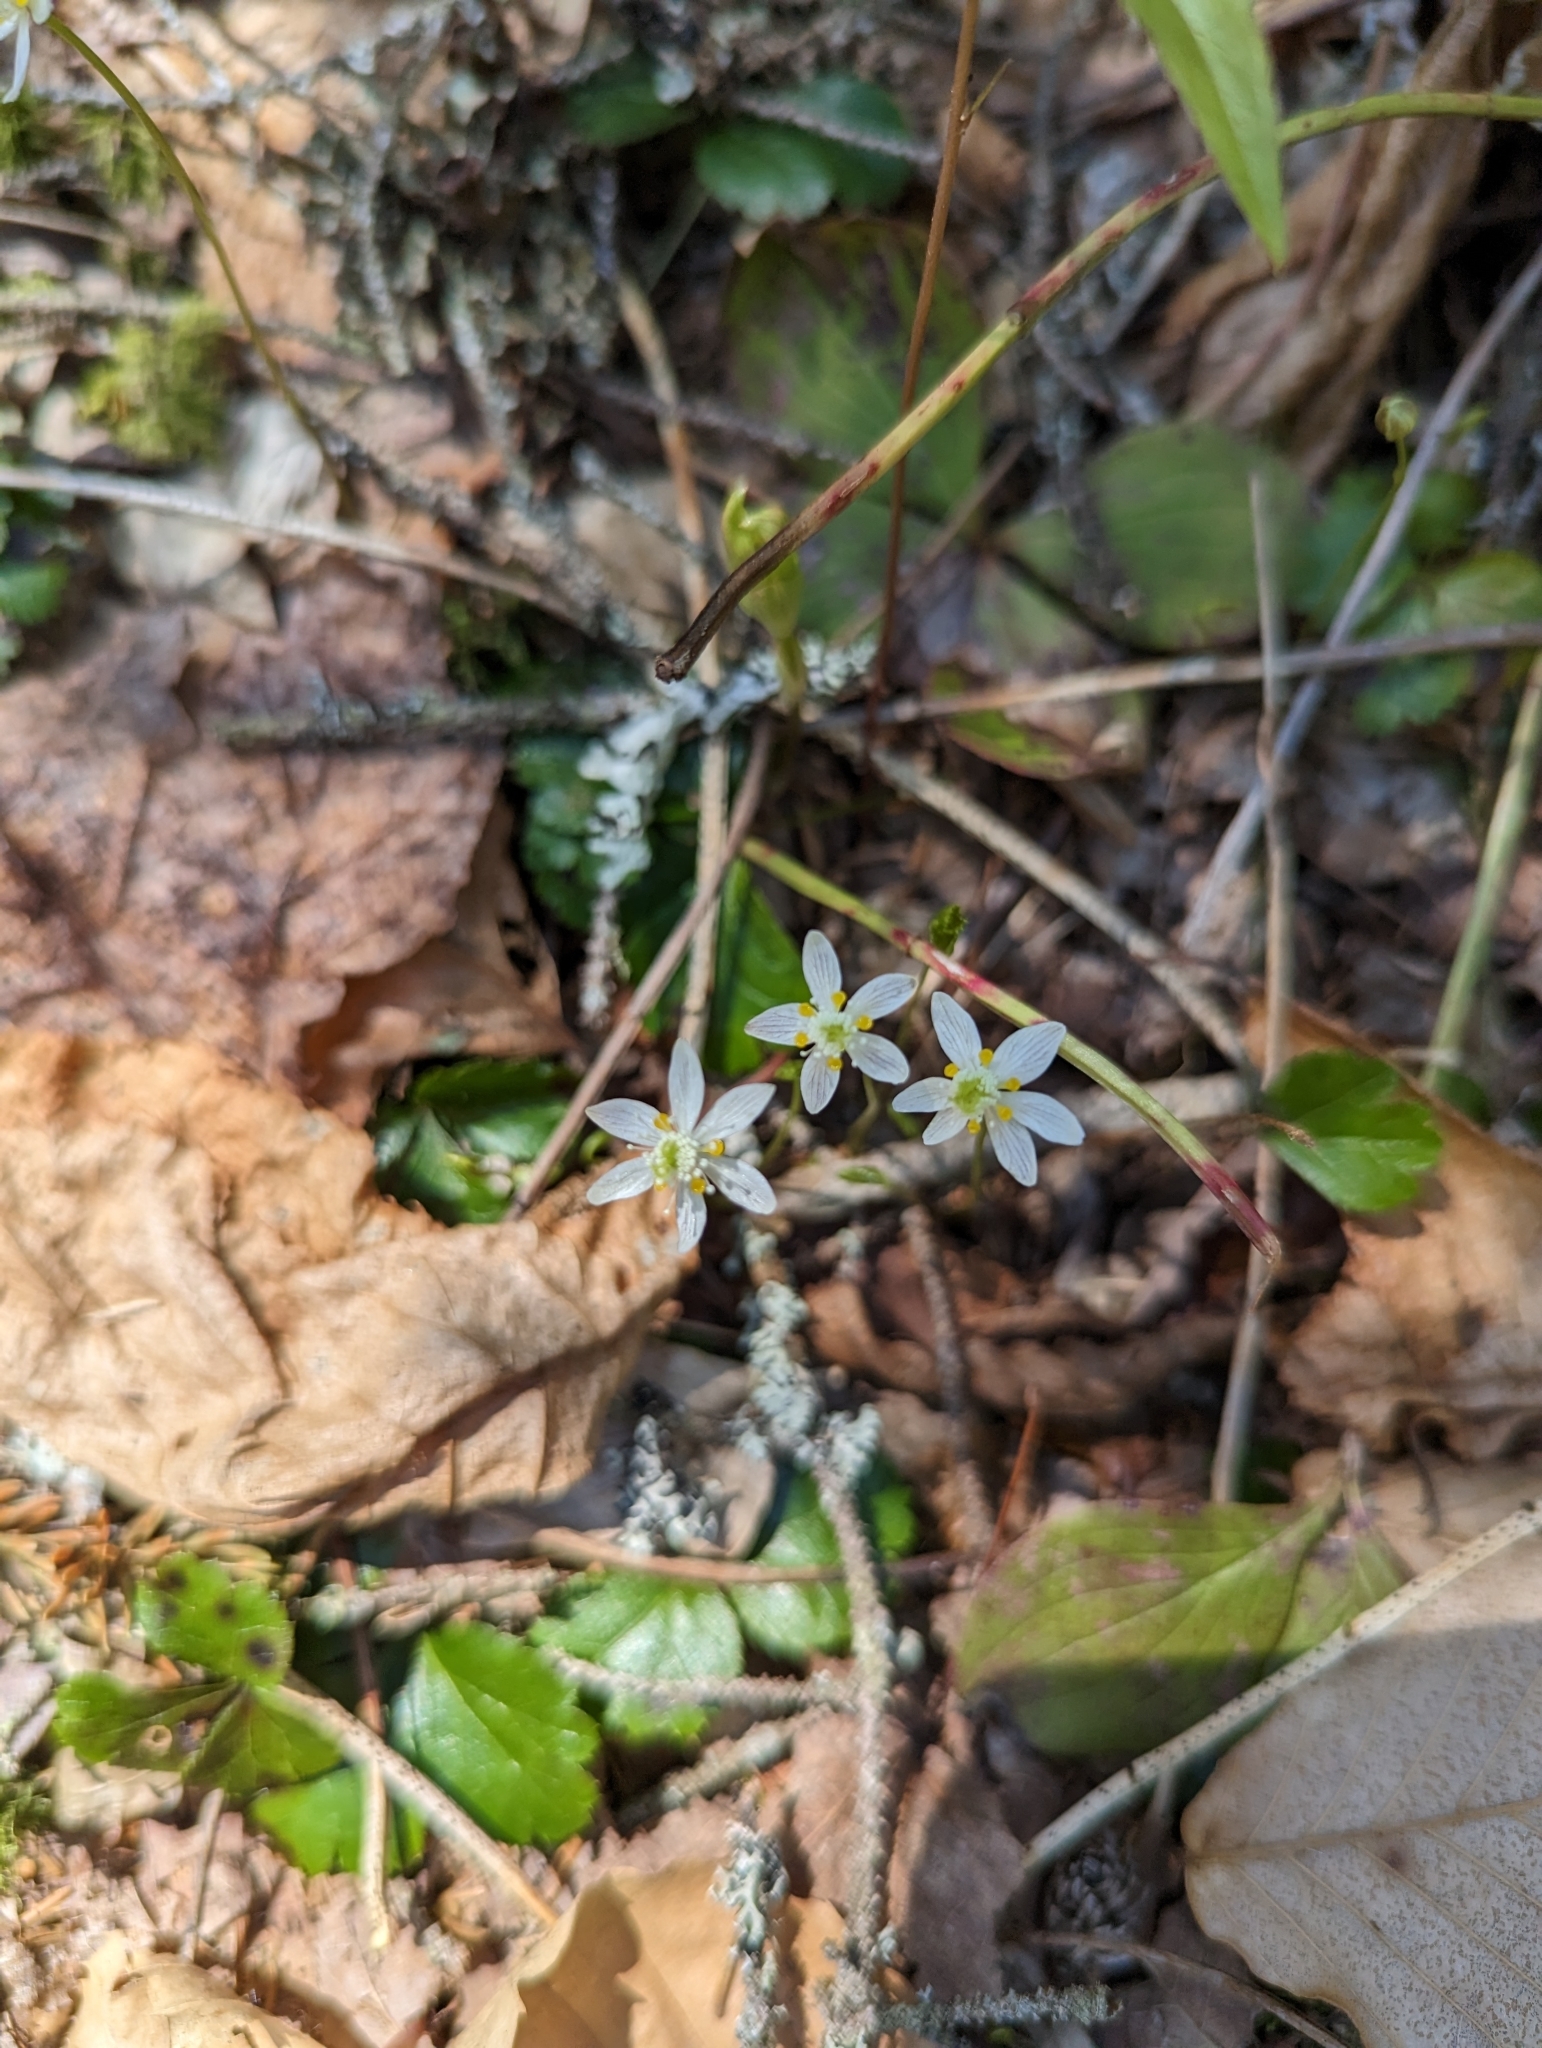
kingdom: Plantae
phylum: Tracheophyta
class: Magnoliopsida
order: Ranunculales
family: Ranunculaceae
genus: Coptis
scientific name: Coptis trifolia
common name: Canker-root
